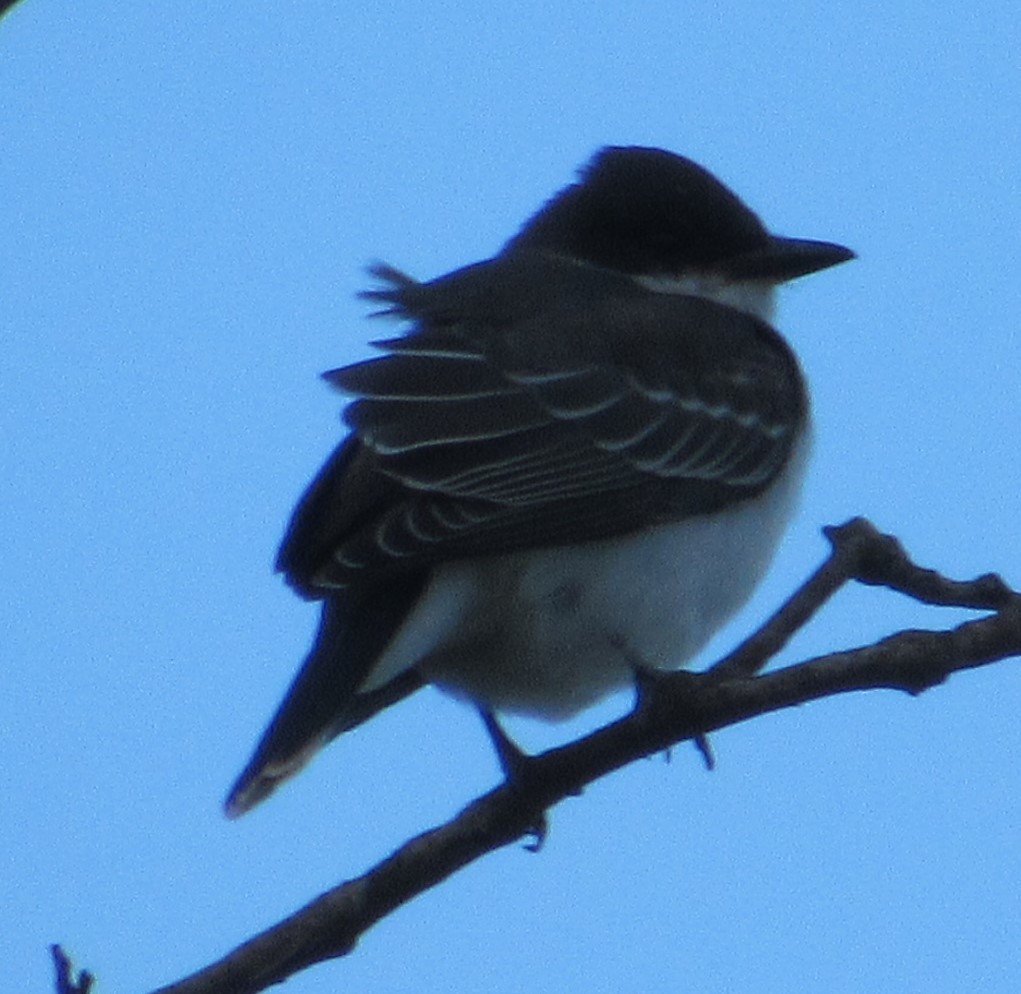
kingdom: Animalia
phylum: Chordata
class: Aves
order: Passeriformes
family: Tyrannidae
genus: Tyrannus
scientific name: Tyrannus tyrannus
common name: Eastern kingbird
